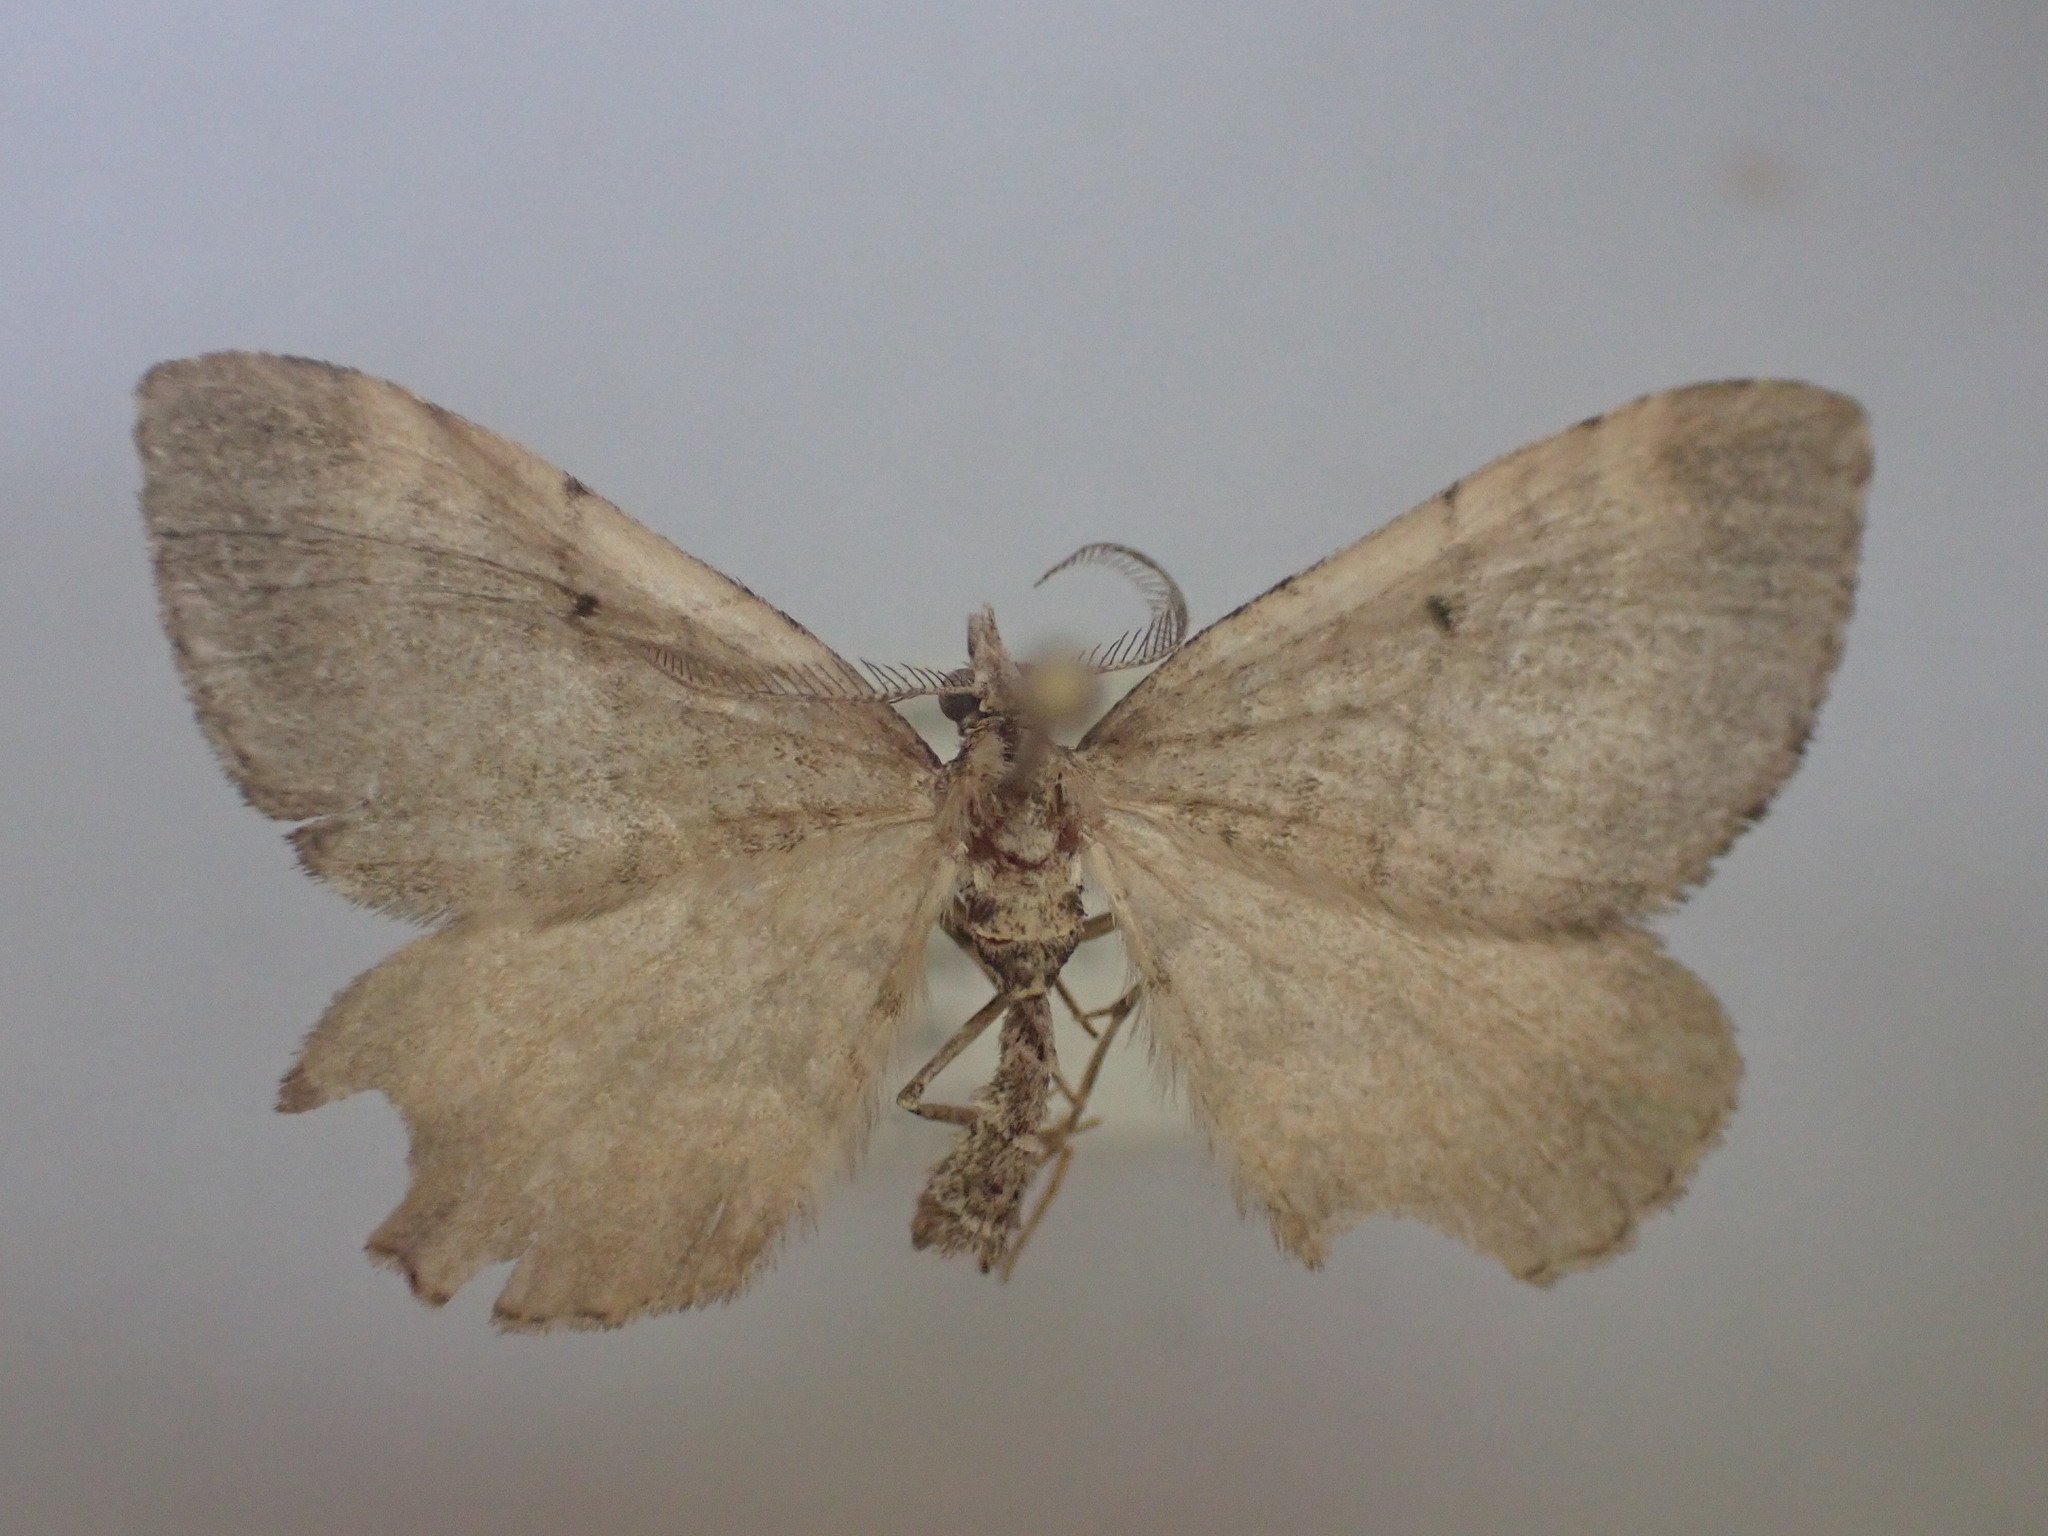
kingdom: Animalia
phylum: Arthropoda
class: Insecta
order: Lepidoptera
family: Geometridae
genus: Asaphodes
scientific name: Asaphodes aegrota
